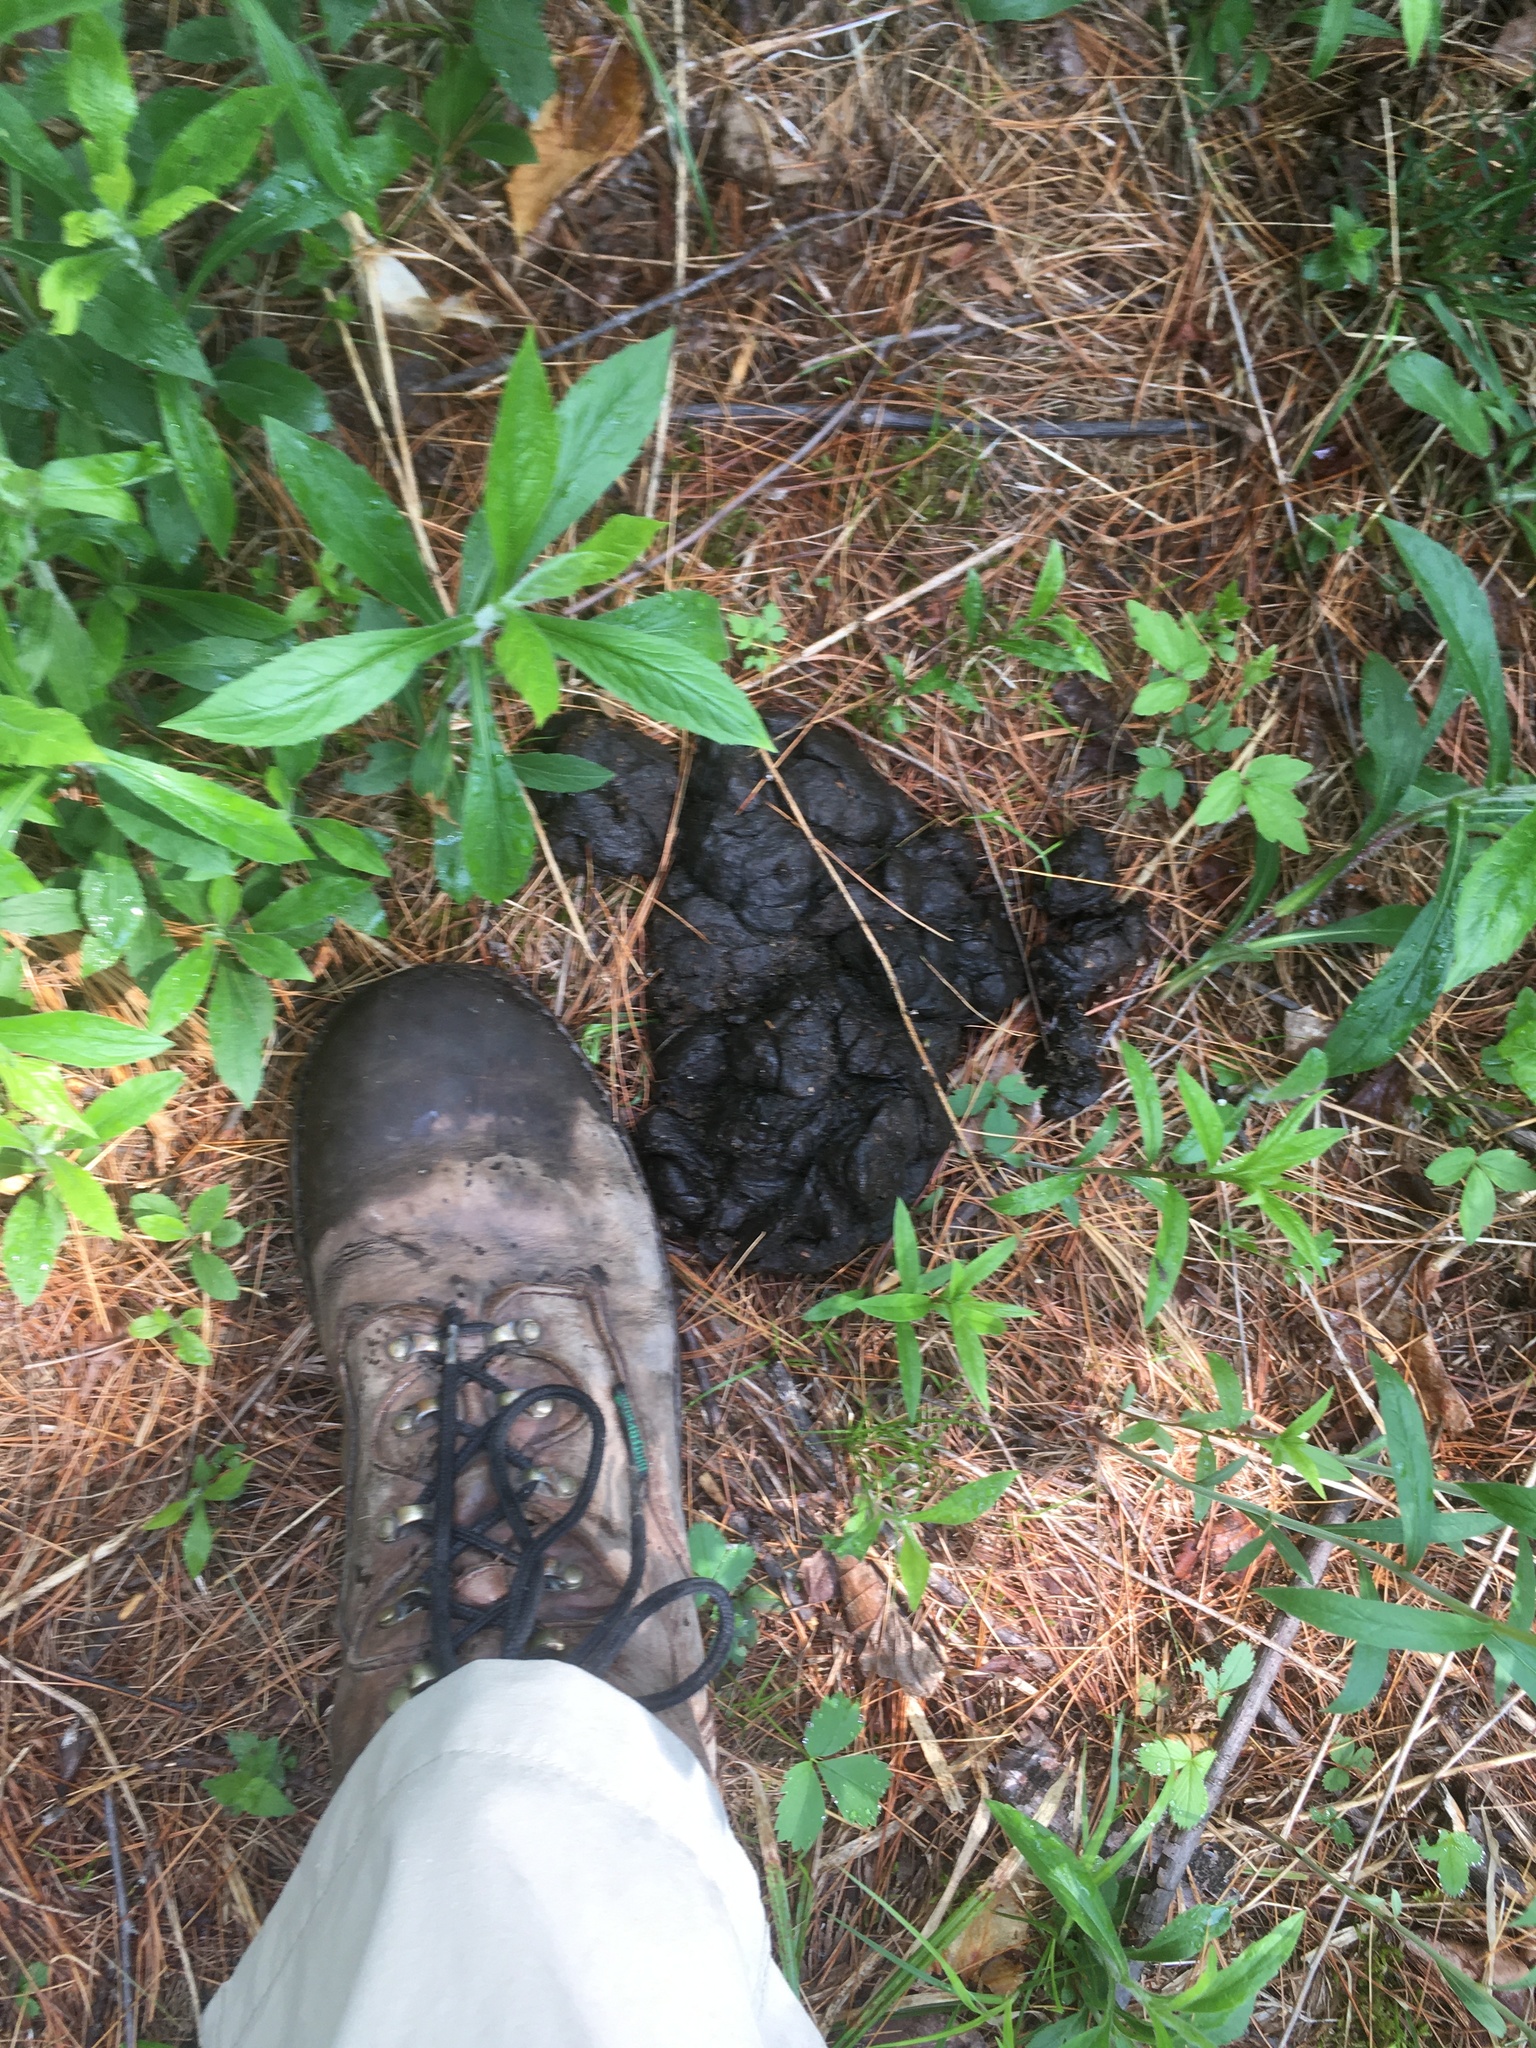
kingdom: Animalia
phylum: Chordata
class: Mammalia
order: Carnivora
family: Ursidae
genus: Ursus
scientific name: Ursus americanus
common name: American black bear
